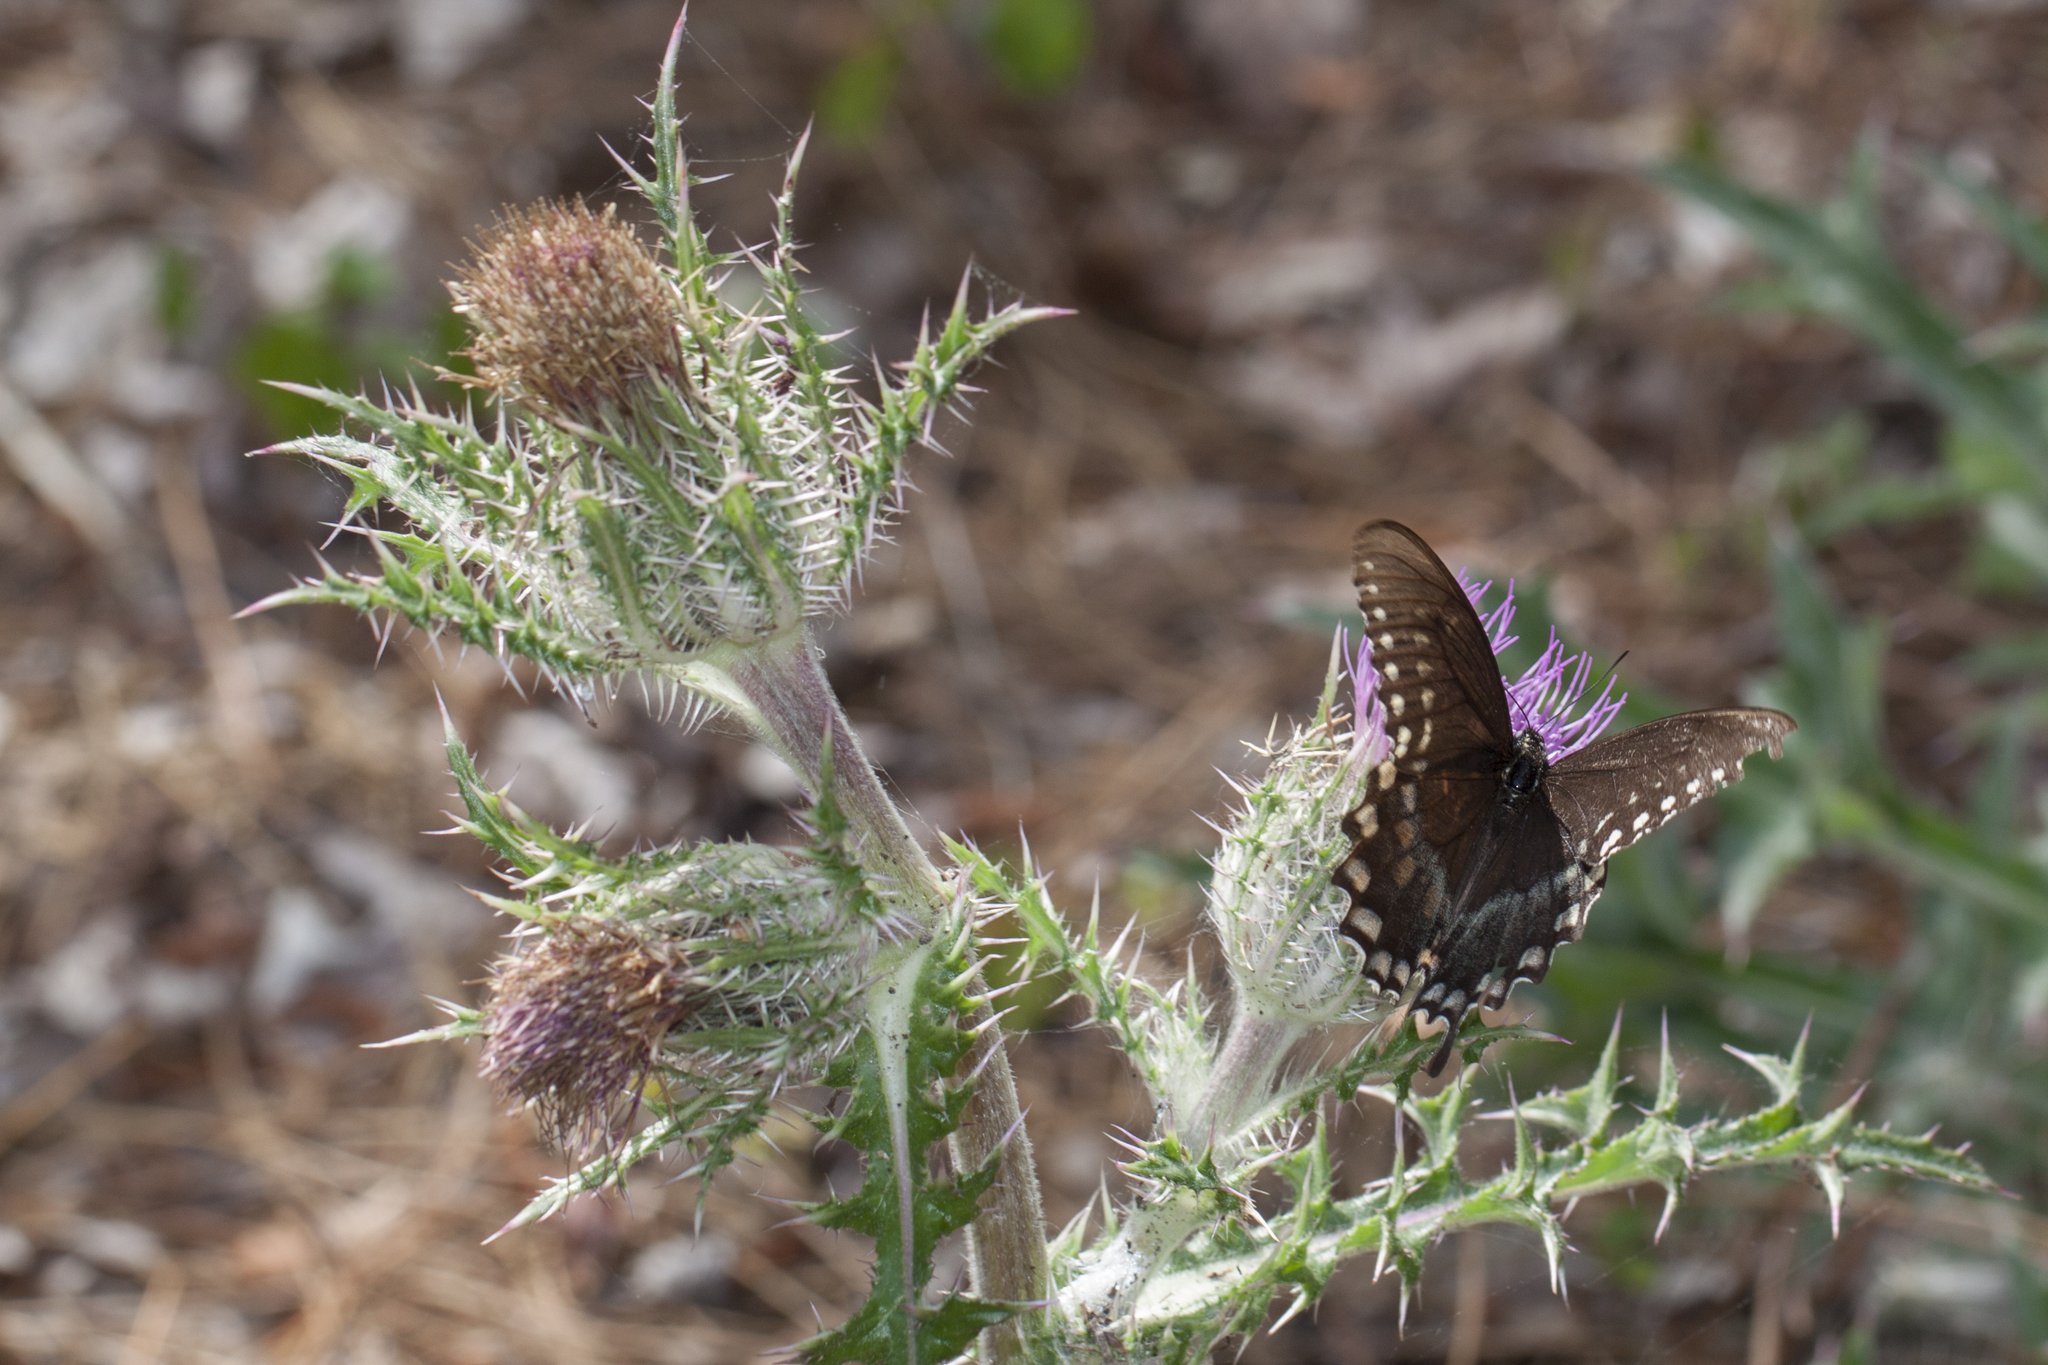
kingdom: Animalia
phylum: Arthropoda
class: Insecta
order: Lepidoptera
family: Papilionidae
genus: Papilio
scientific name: Papilio troilus
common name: Spicebush swallowtail
